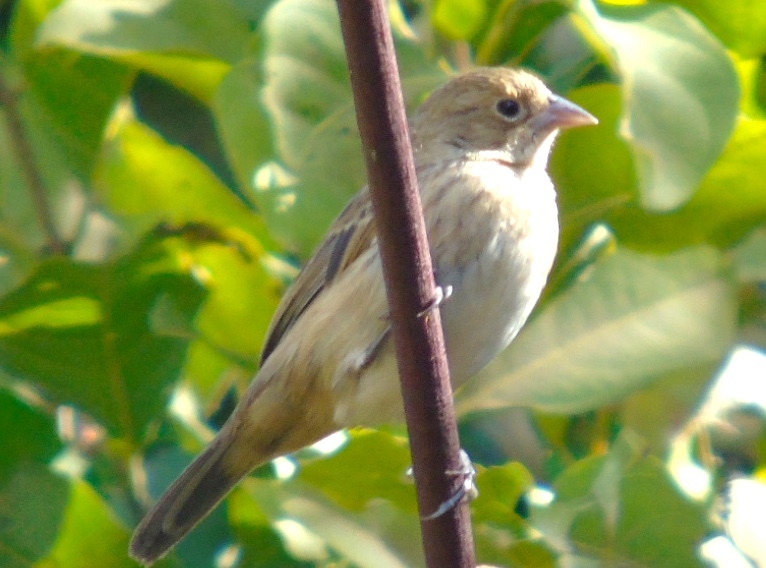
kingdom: Animalia
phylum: Chordata
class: Aves
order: Passeriformes
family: Thraupidae
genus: Volatinia
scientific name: Volatinia jacarina
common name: Blue-black grassquit
